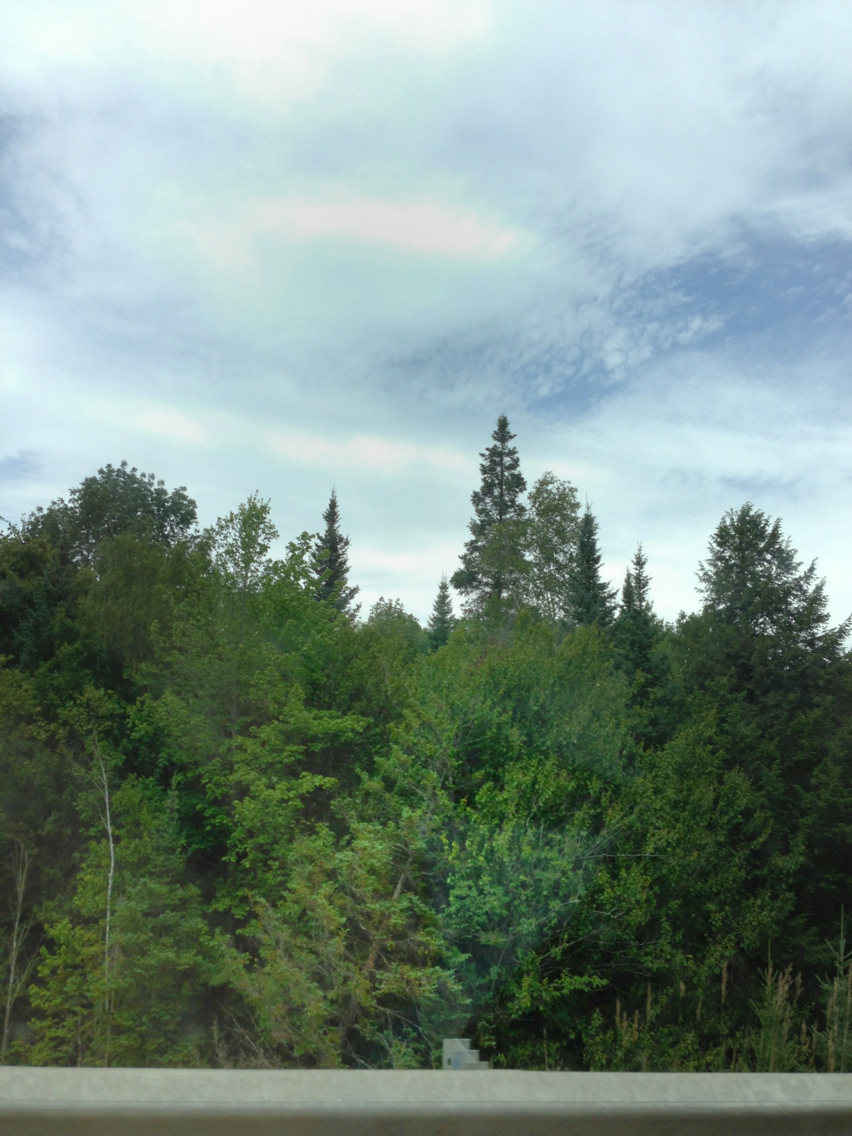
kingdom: Plantae
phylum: Tracheophyta
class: Pinopsida
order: Pinales
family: Pinaceae
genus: Abies
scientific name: Abies balsamea
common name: Balsam fir
